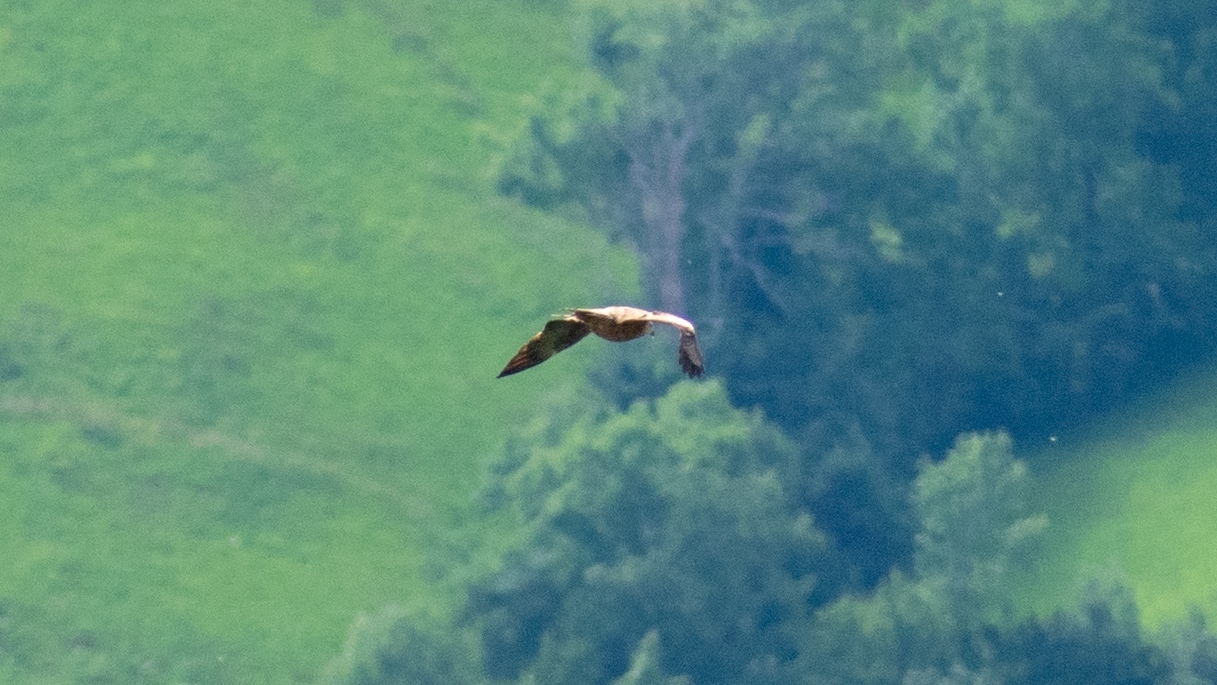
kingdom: Animalia
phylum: Chordata
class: Aves
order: Accipitriformes
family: Accipitridae
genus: Milvus
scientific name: Milvus migrans
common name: Black kite
